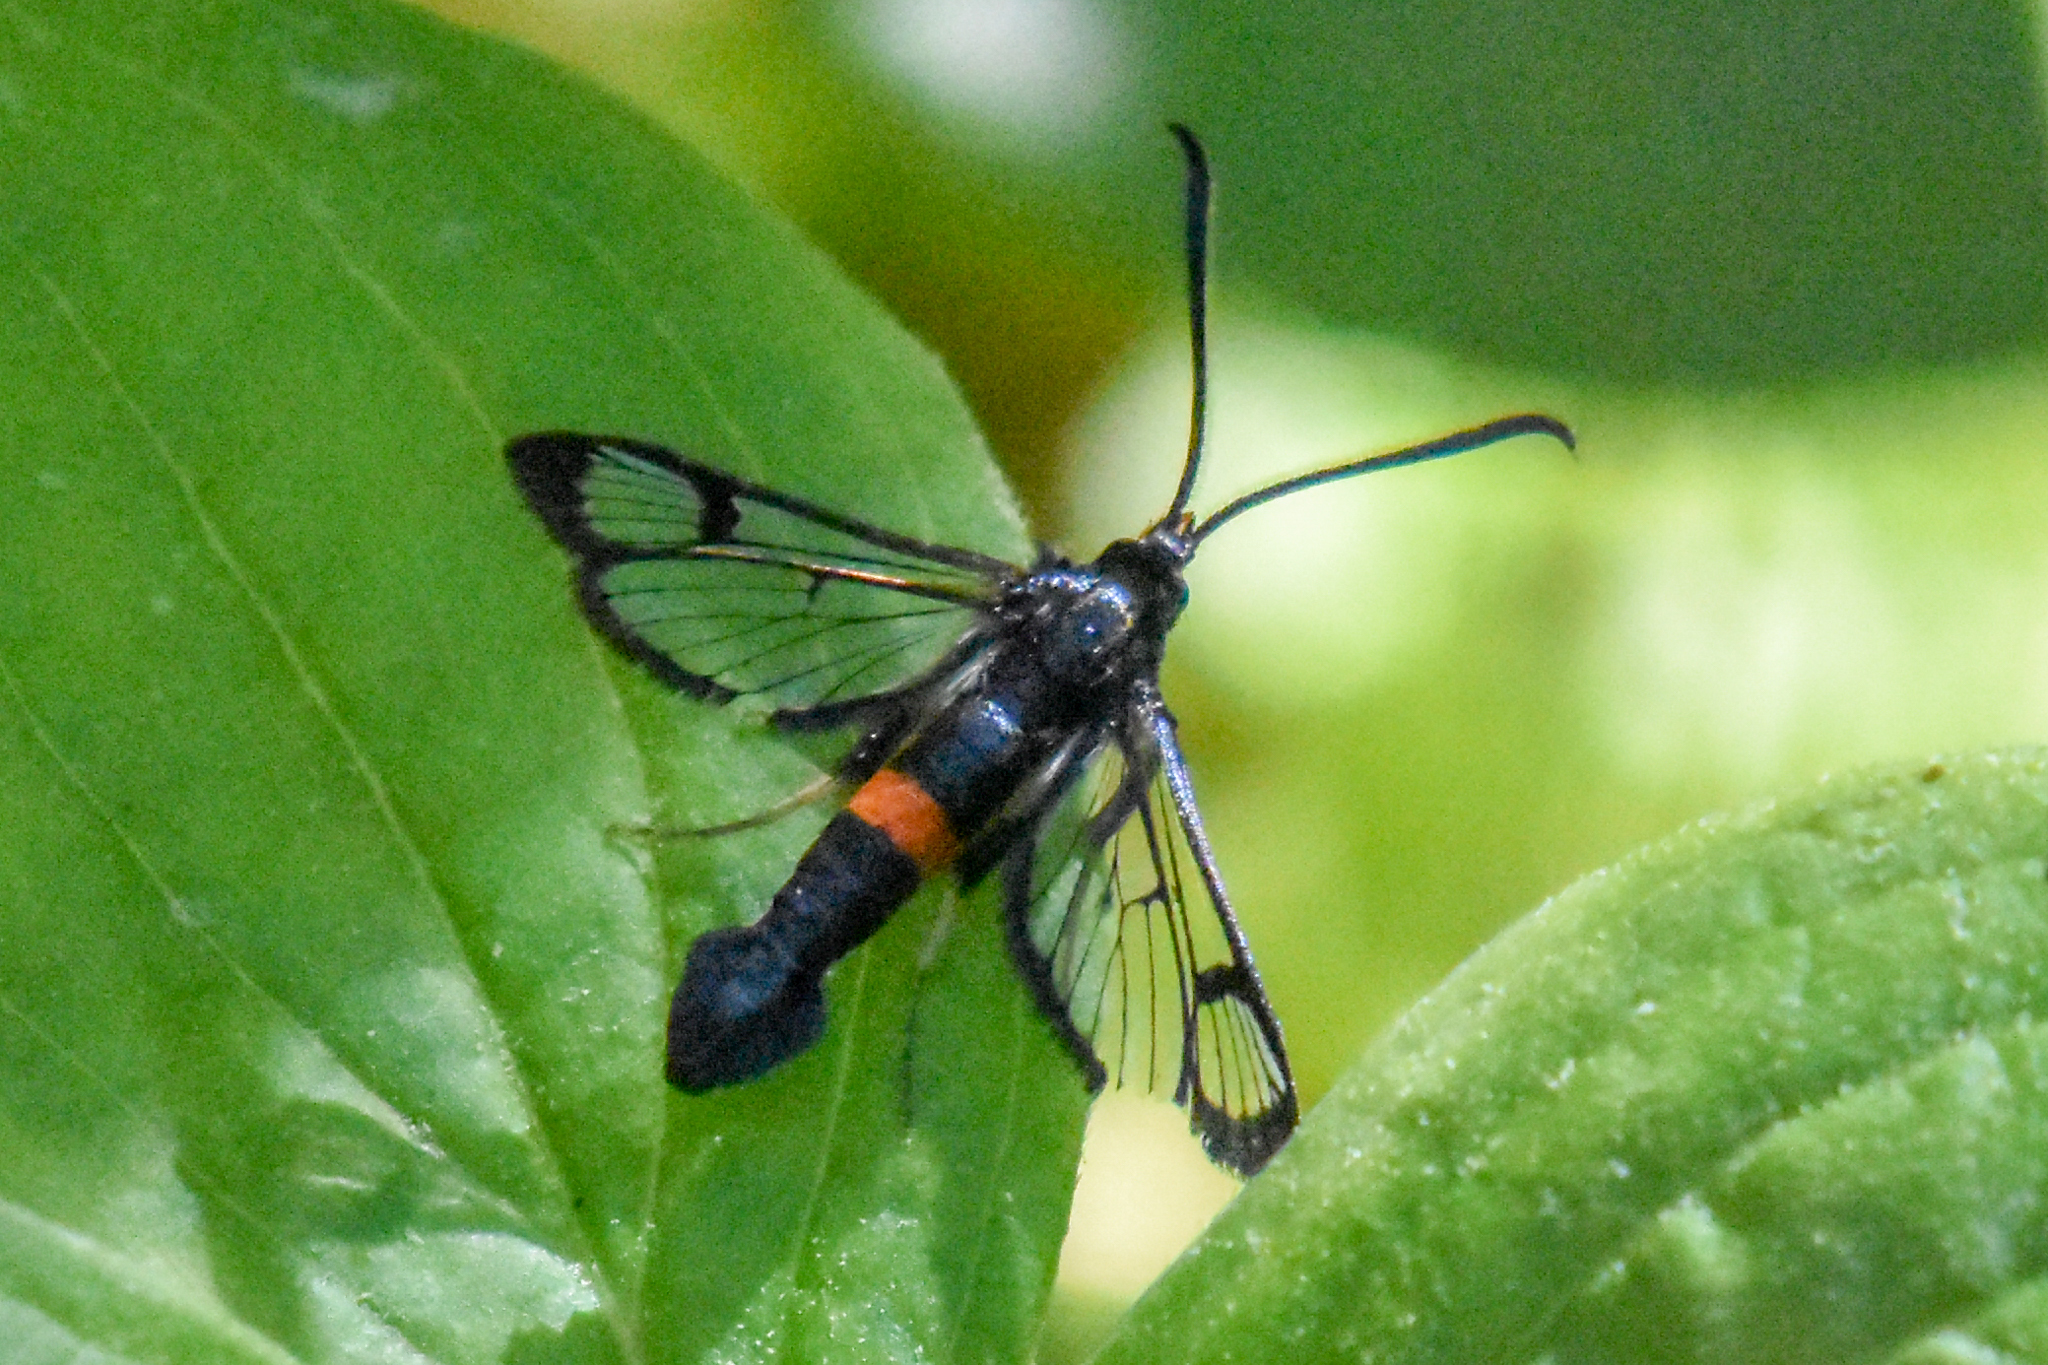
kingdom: Animalia
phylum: Arthropoda
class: Insecta
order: Lepidoptera
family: Sesiidae
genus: Synanthedon
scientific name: Synanthedon culiciformis
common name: Large red-belted clearwing
